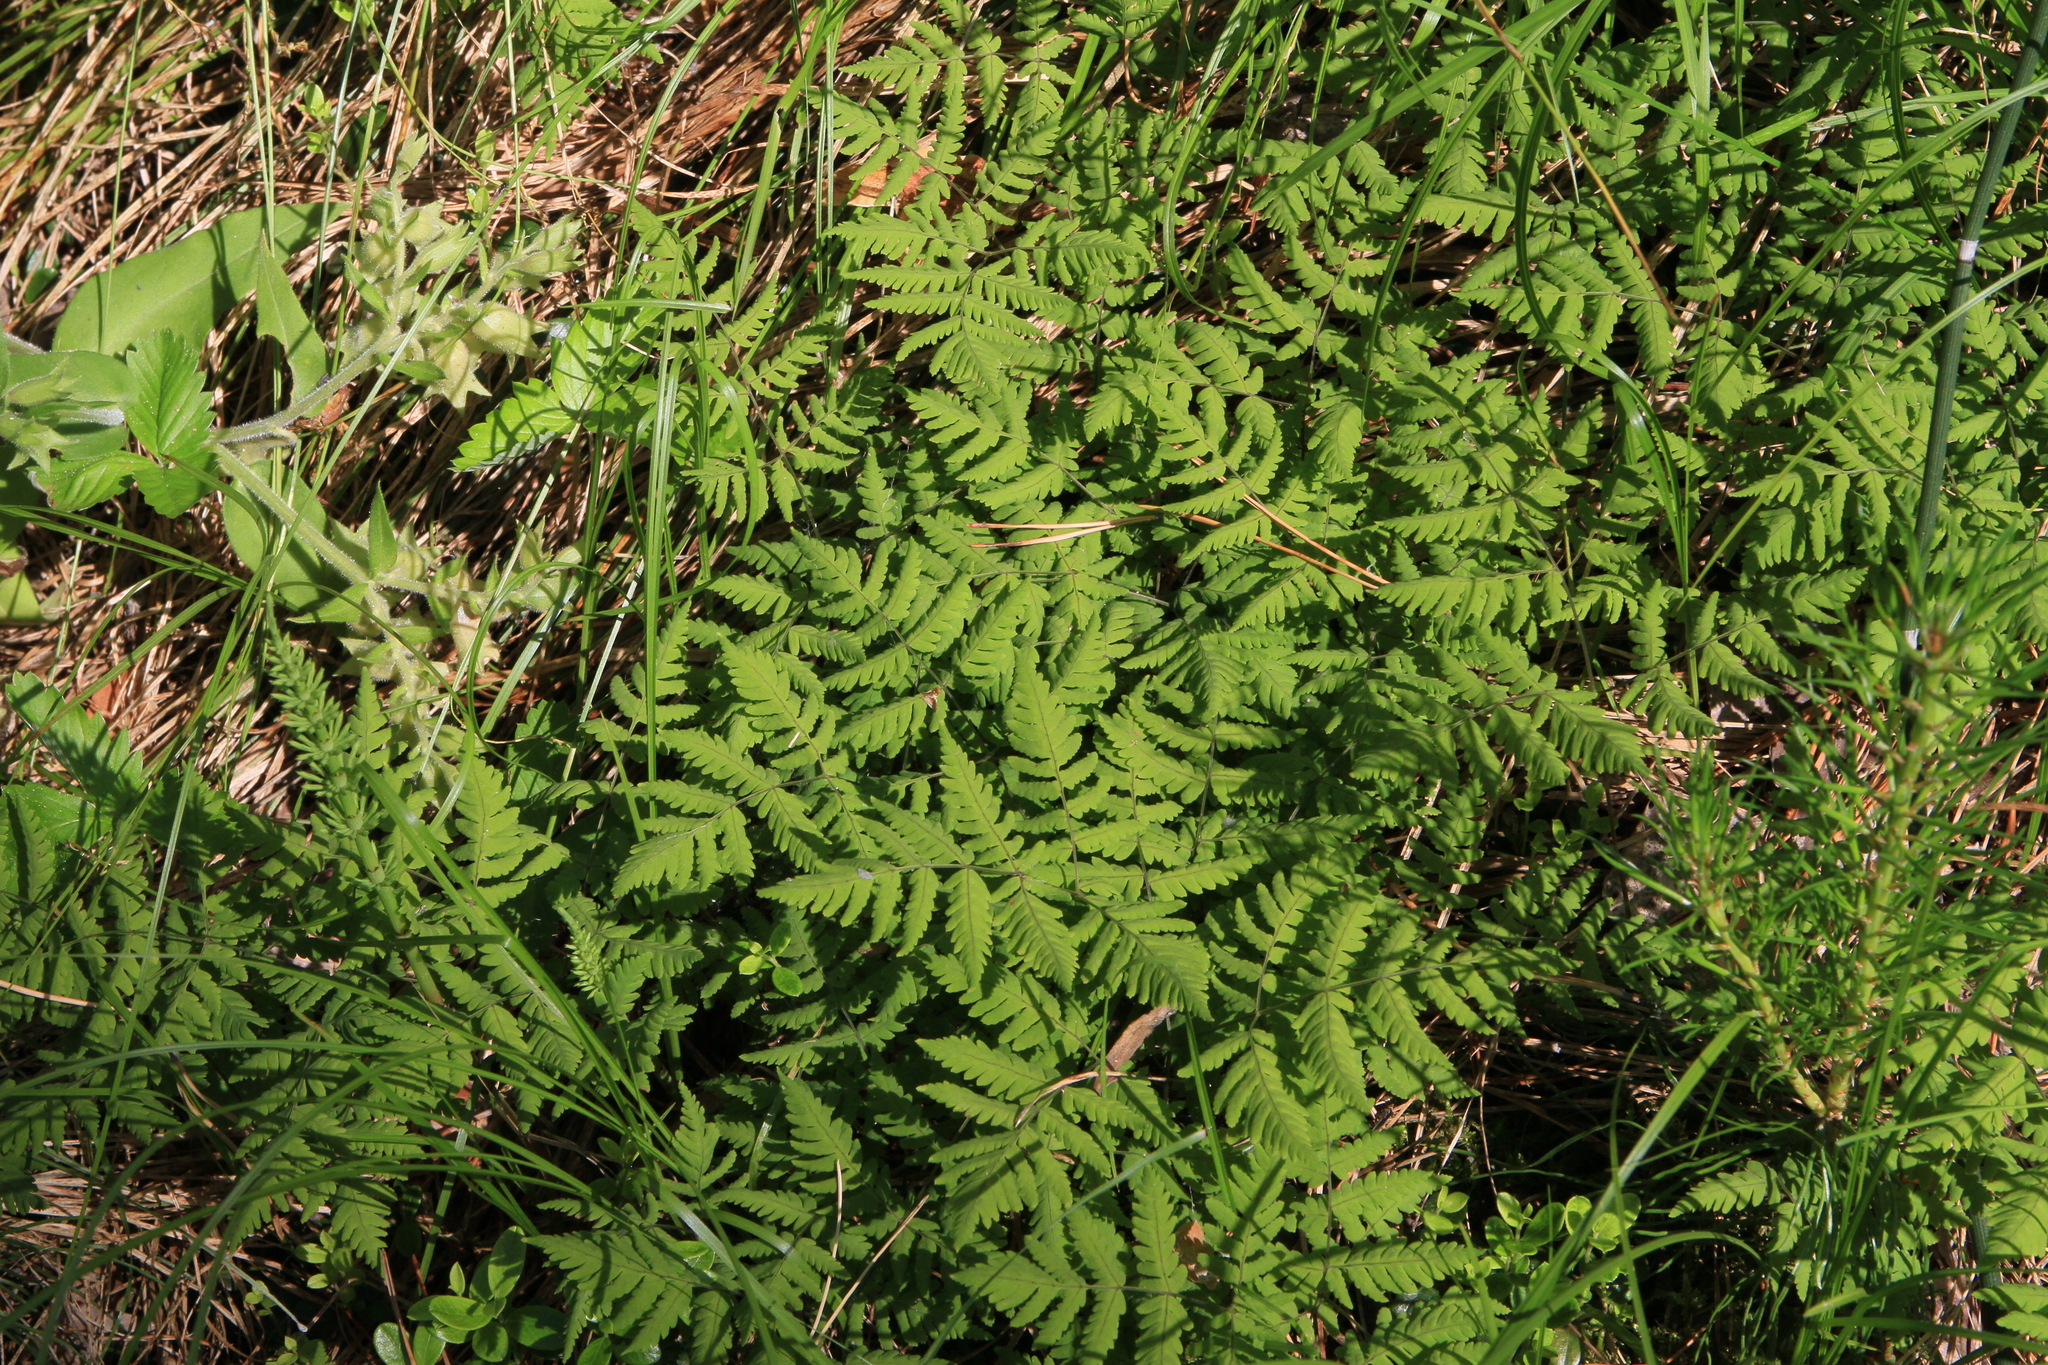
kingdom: Plantae
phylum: Tracheophyta
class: Polypodiopsida
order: Polypodiales
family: Cystopteridaceae
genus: Gymnocarpium
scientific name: Gymnocarpium dryopteris
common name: Oak fern
